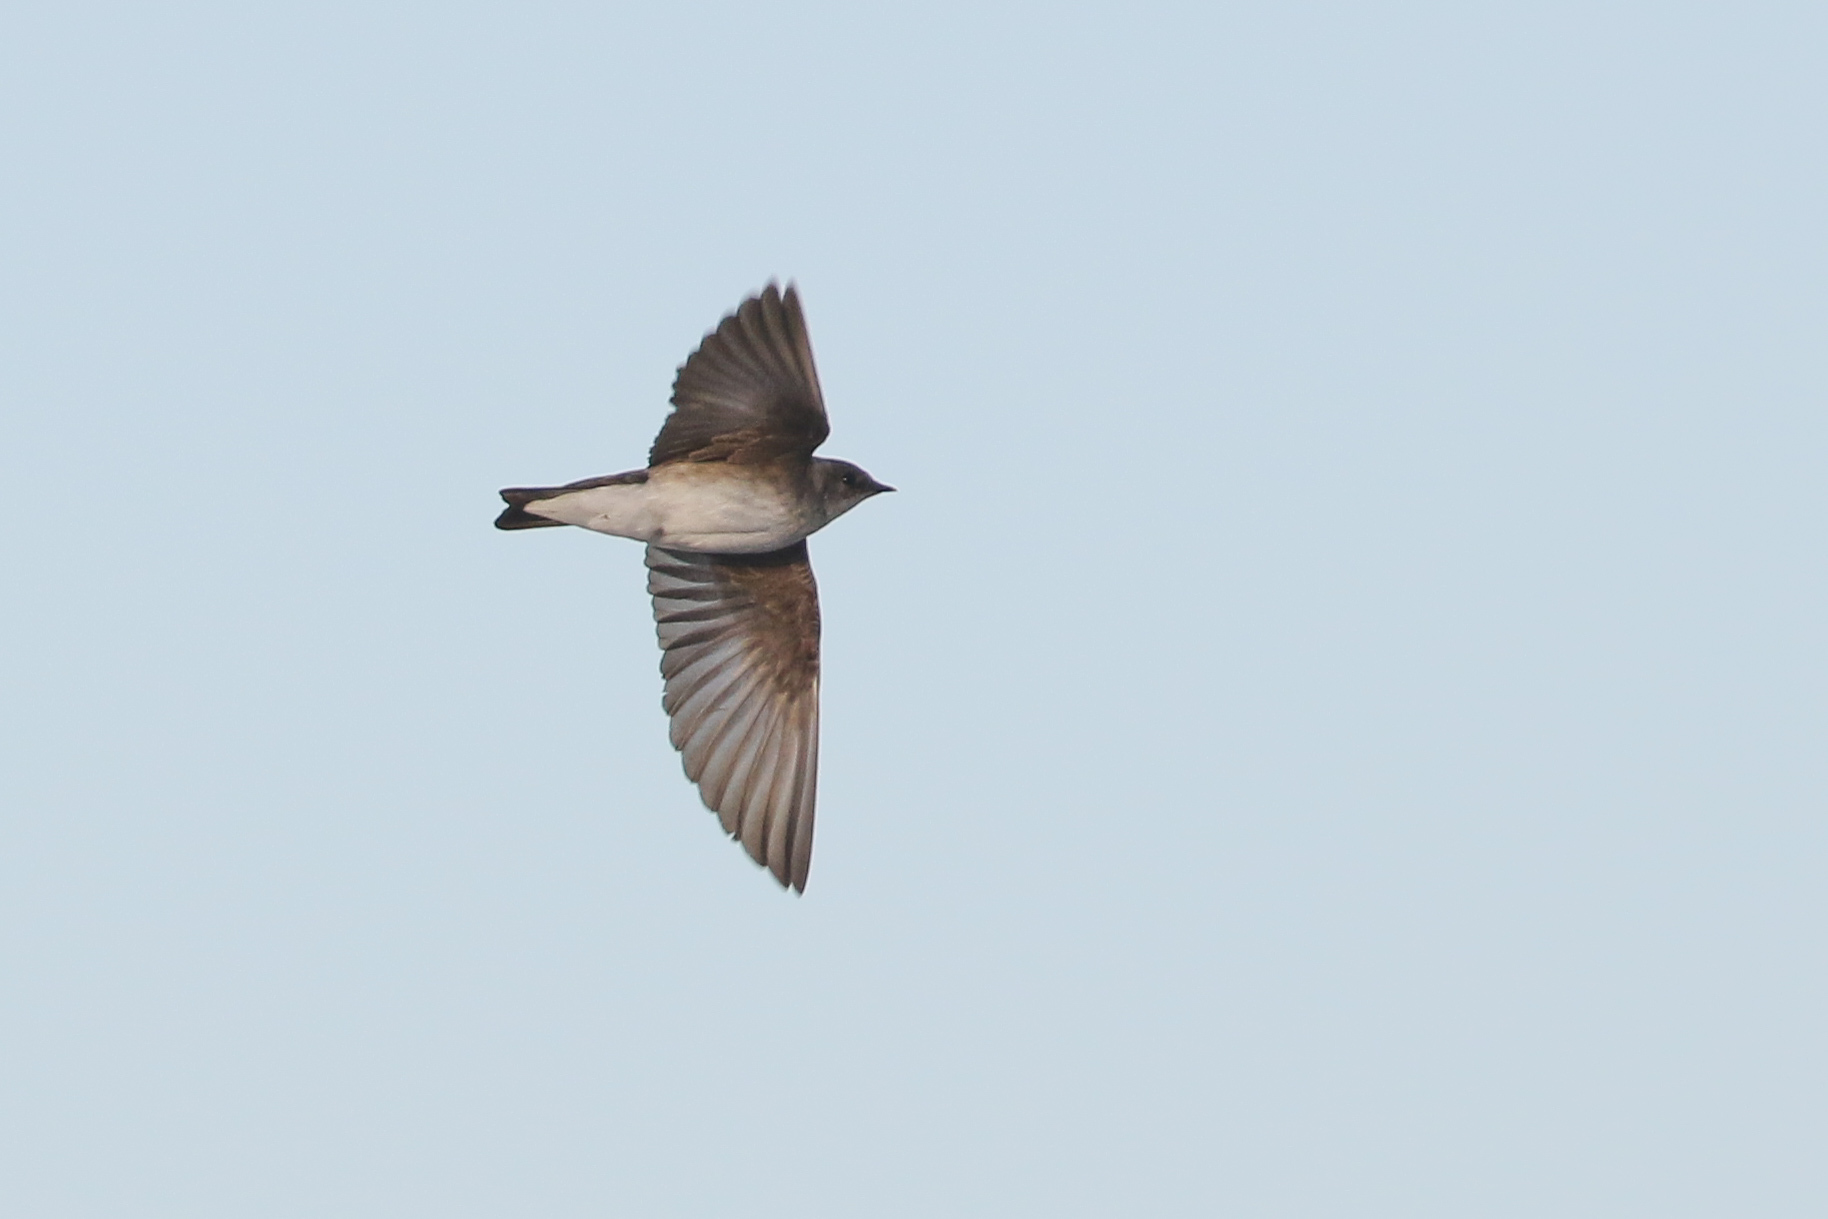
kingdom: Animalia
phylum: Chordata
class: Aves
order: Passeriformes
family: Hirundinidae
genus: Stelgidopteryx
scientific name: Stelgidopteryx serripennis
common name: Northern rough-winged swallow
